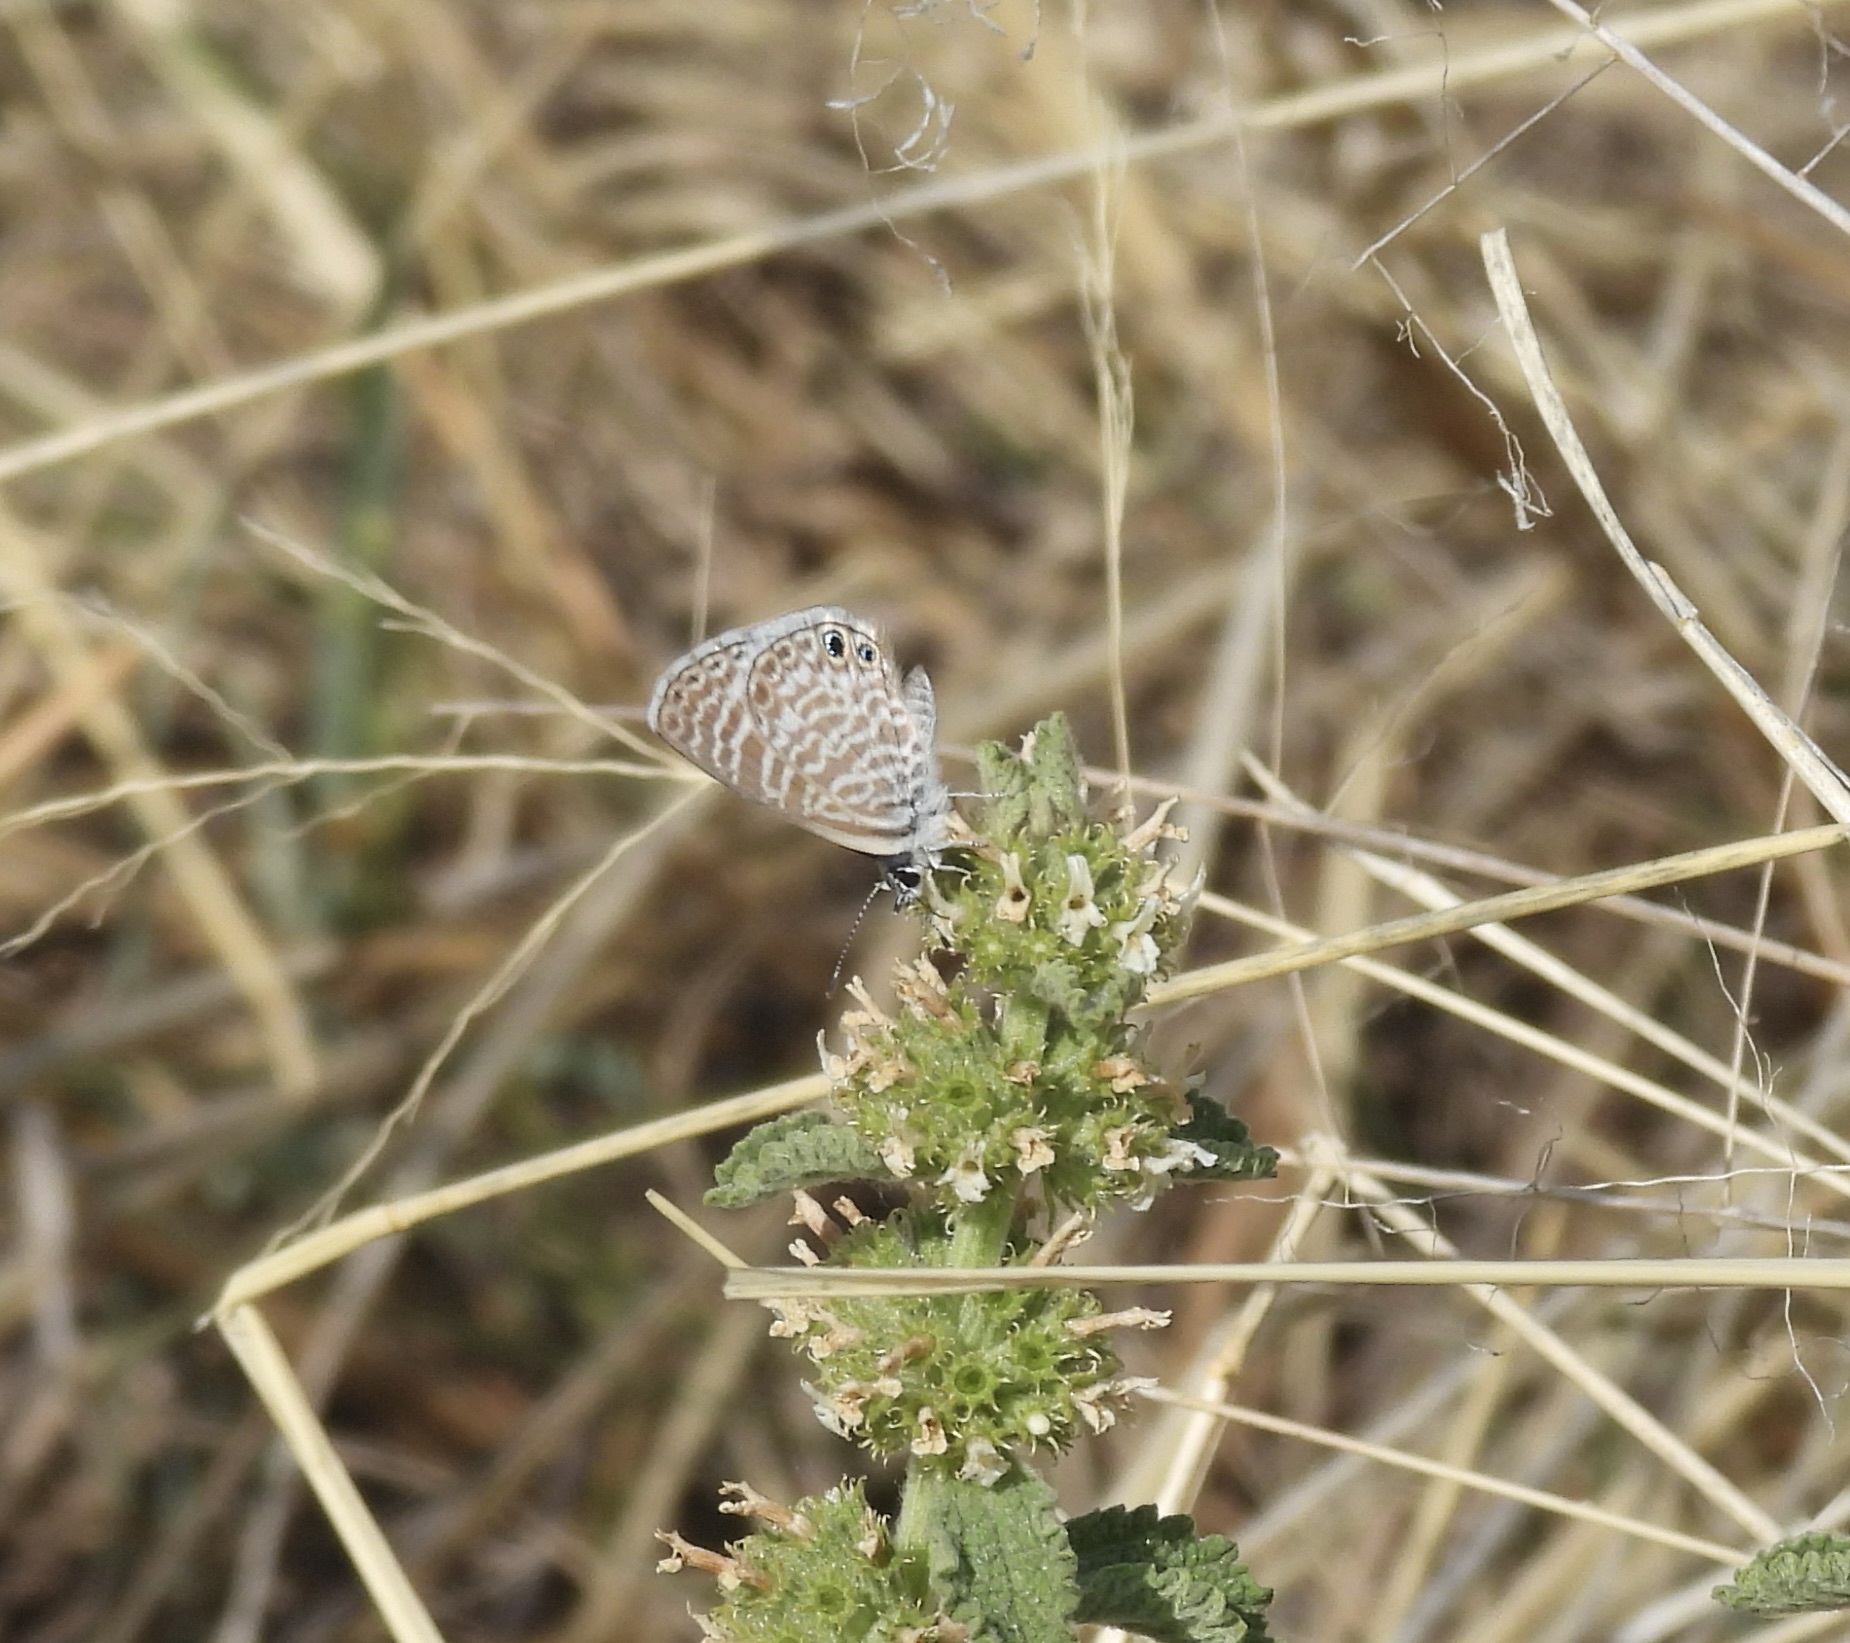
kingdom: Animalia
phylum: Arthropoda
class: Insecta
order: Lepidoptera
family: Lycaenidae
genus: Leptotes
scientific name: Leptotes marina
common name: Marine blue
